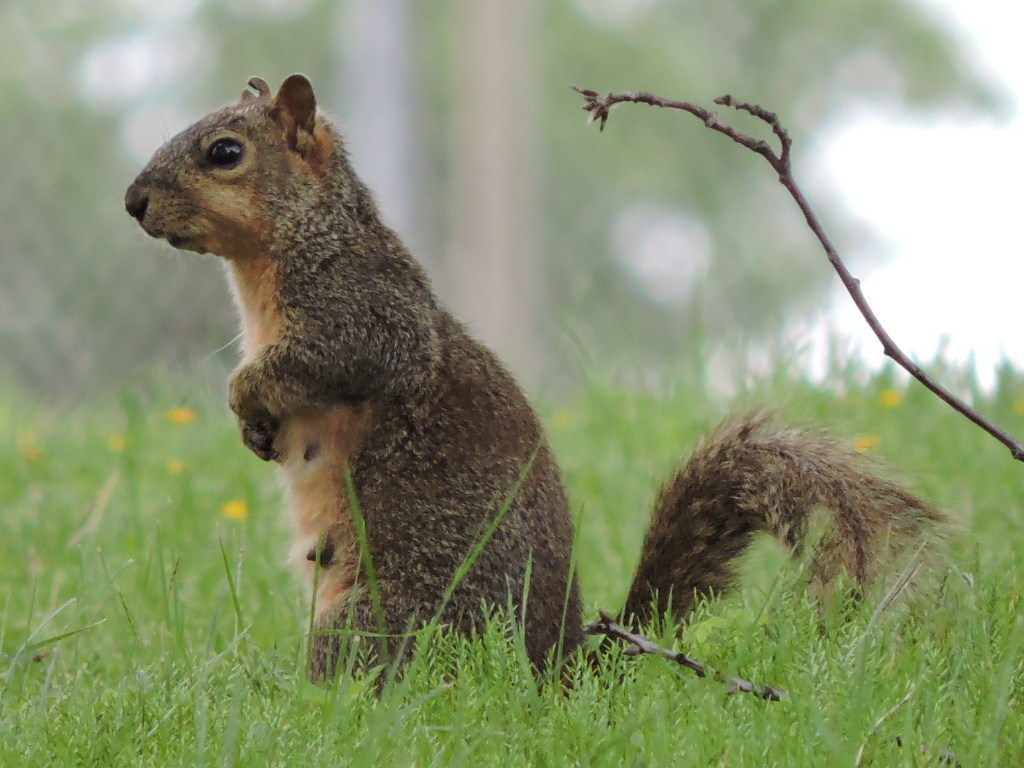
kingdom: Animalia
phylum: Chordata
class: Mammalia
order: Rodentia
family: Sciuridae
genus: Sciurus
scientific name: Sciurus niger
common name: Fox squirrel
